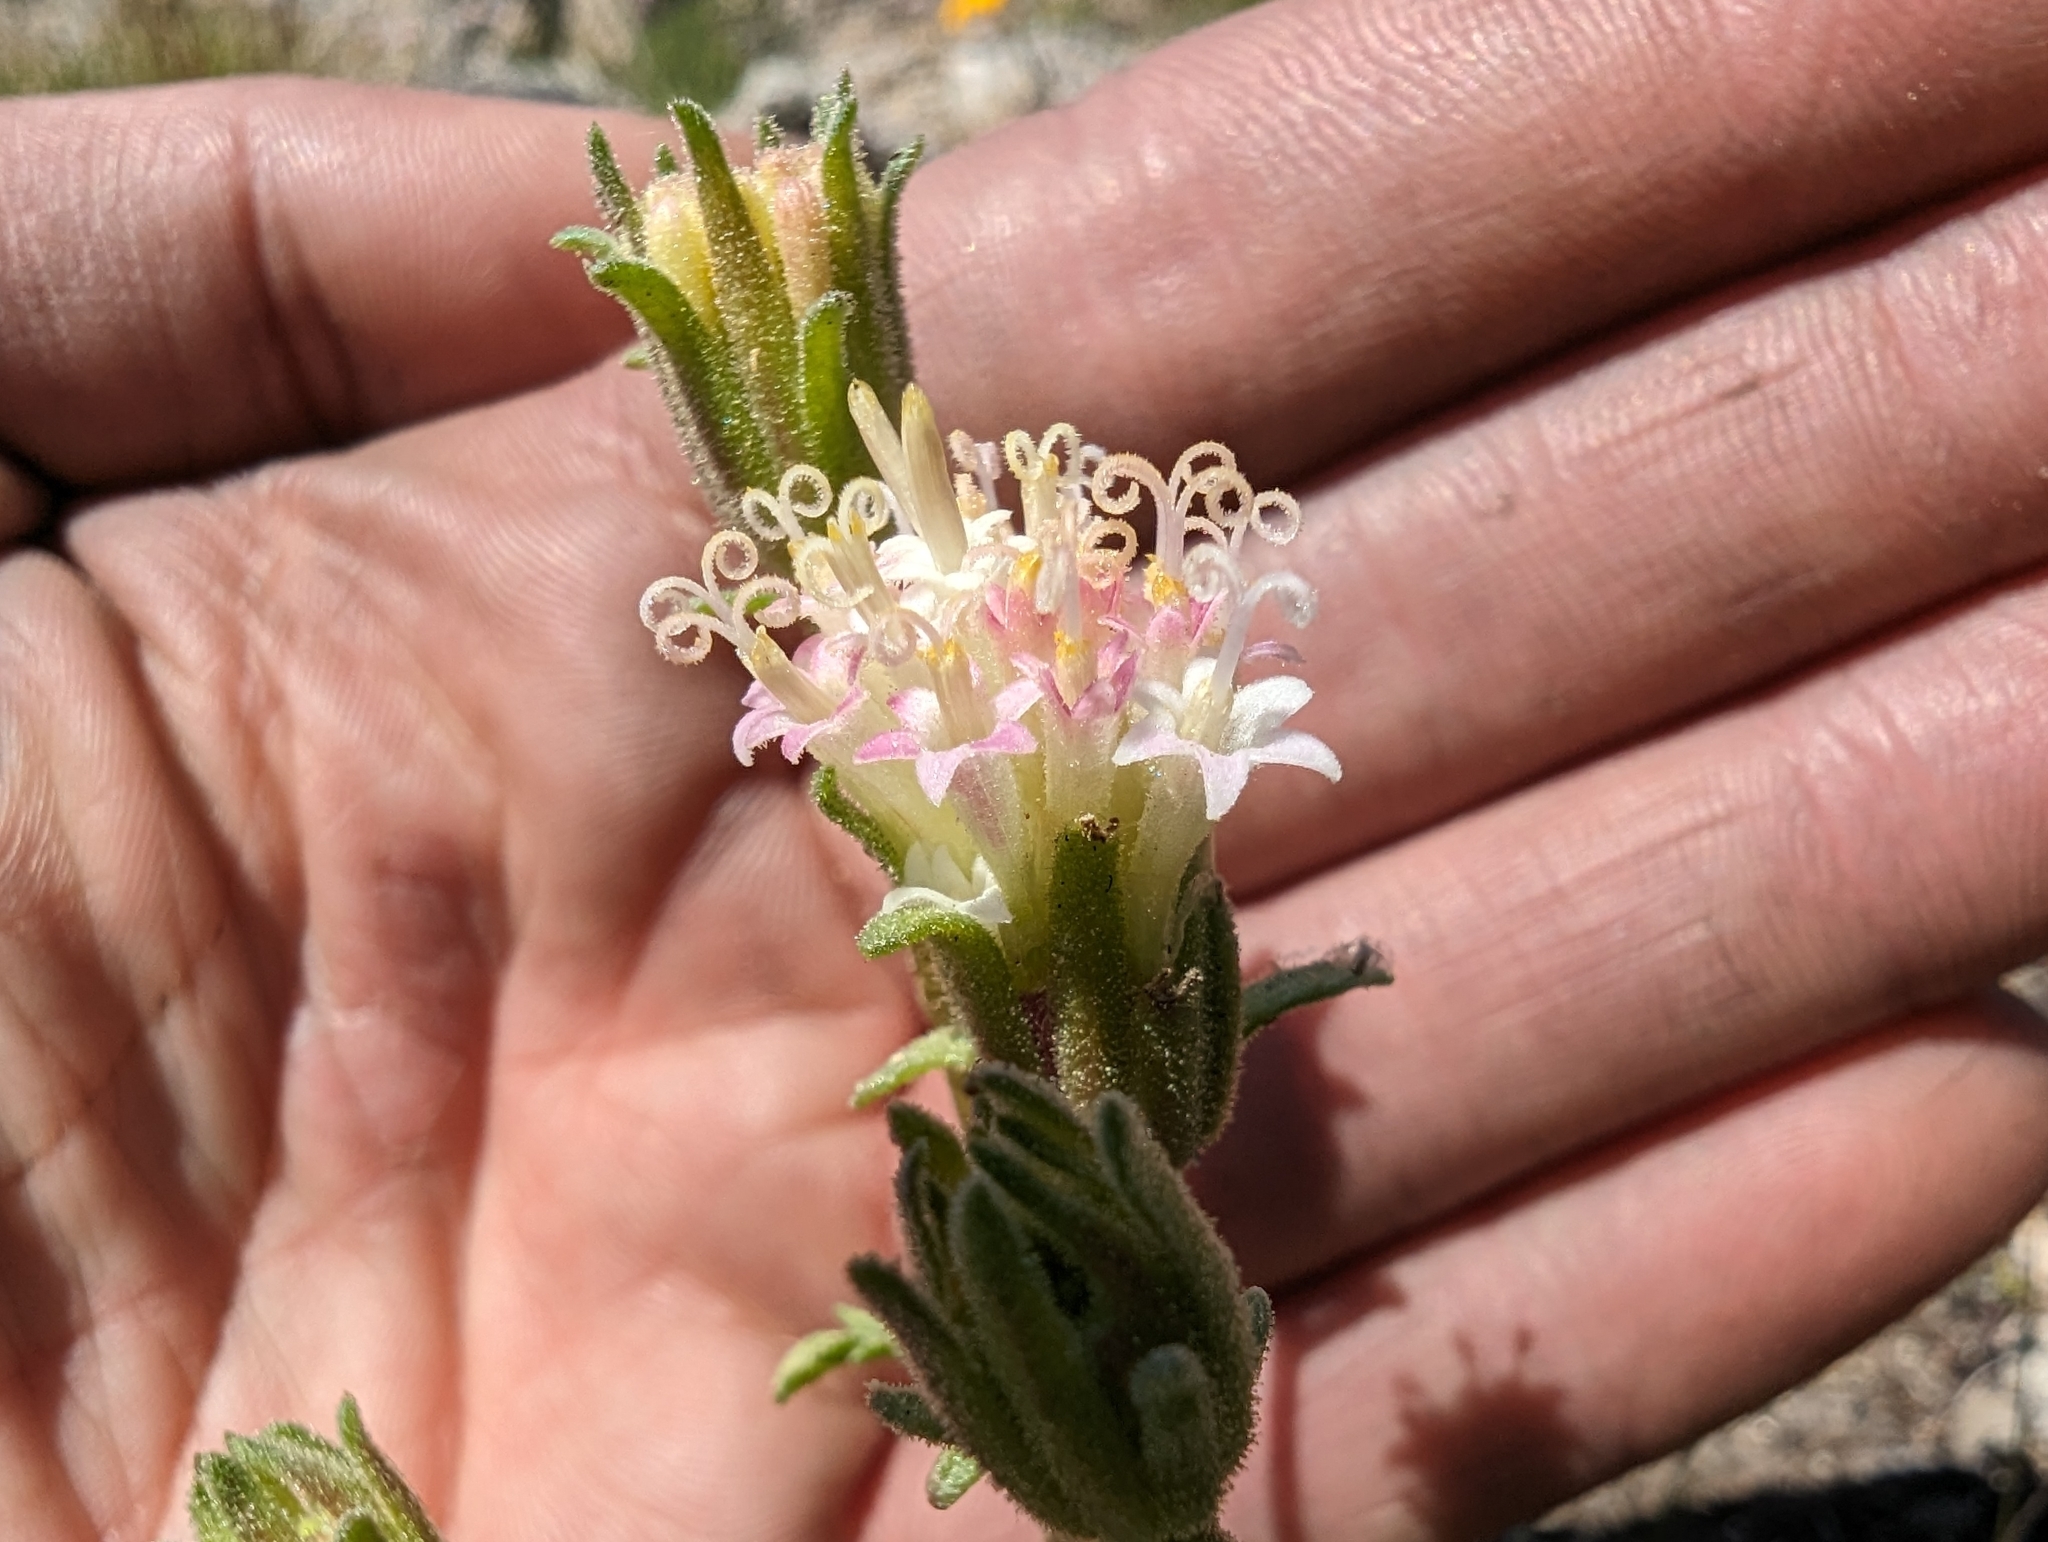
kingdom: Plantae
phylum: Tracheophyta
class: Magnoliopsida
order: Asterales
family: Asteraceae
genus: Chaenactis
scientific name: Chaenactis douglasii
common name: Hoary pincushion
